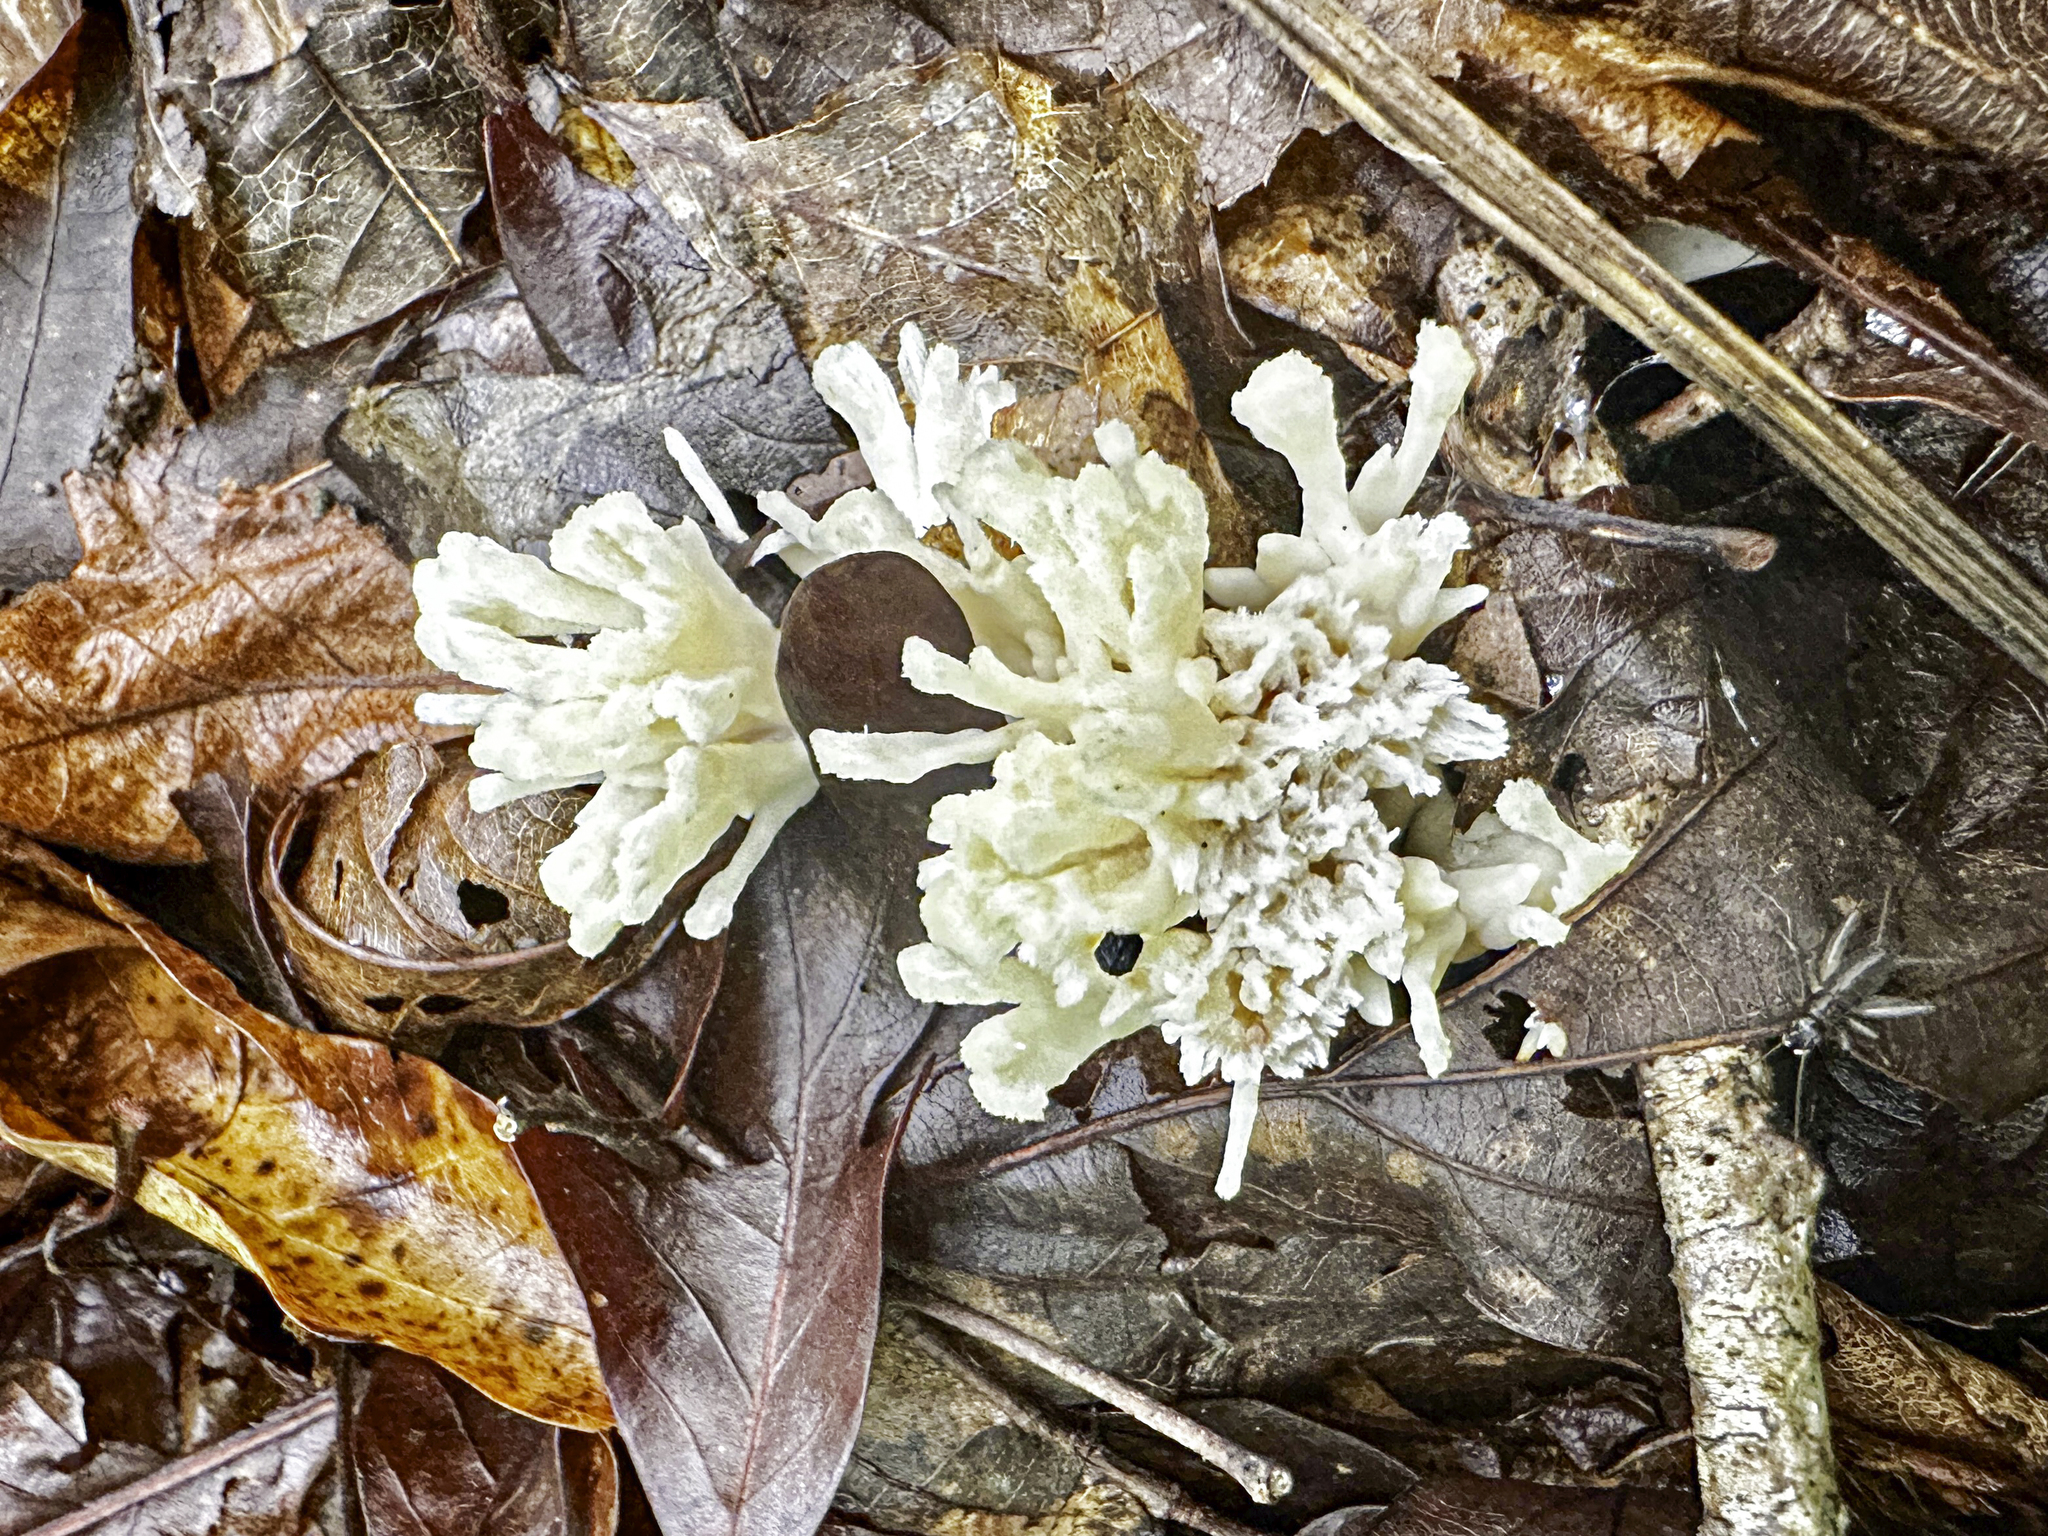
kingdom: Fungi
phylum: Basidiomycota
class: Agaricomycetes
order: Sebacinales
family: Sebacinaceae
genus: Sebacina
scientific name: Sebacina schweinitzii
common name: Jellied false coral fungus
